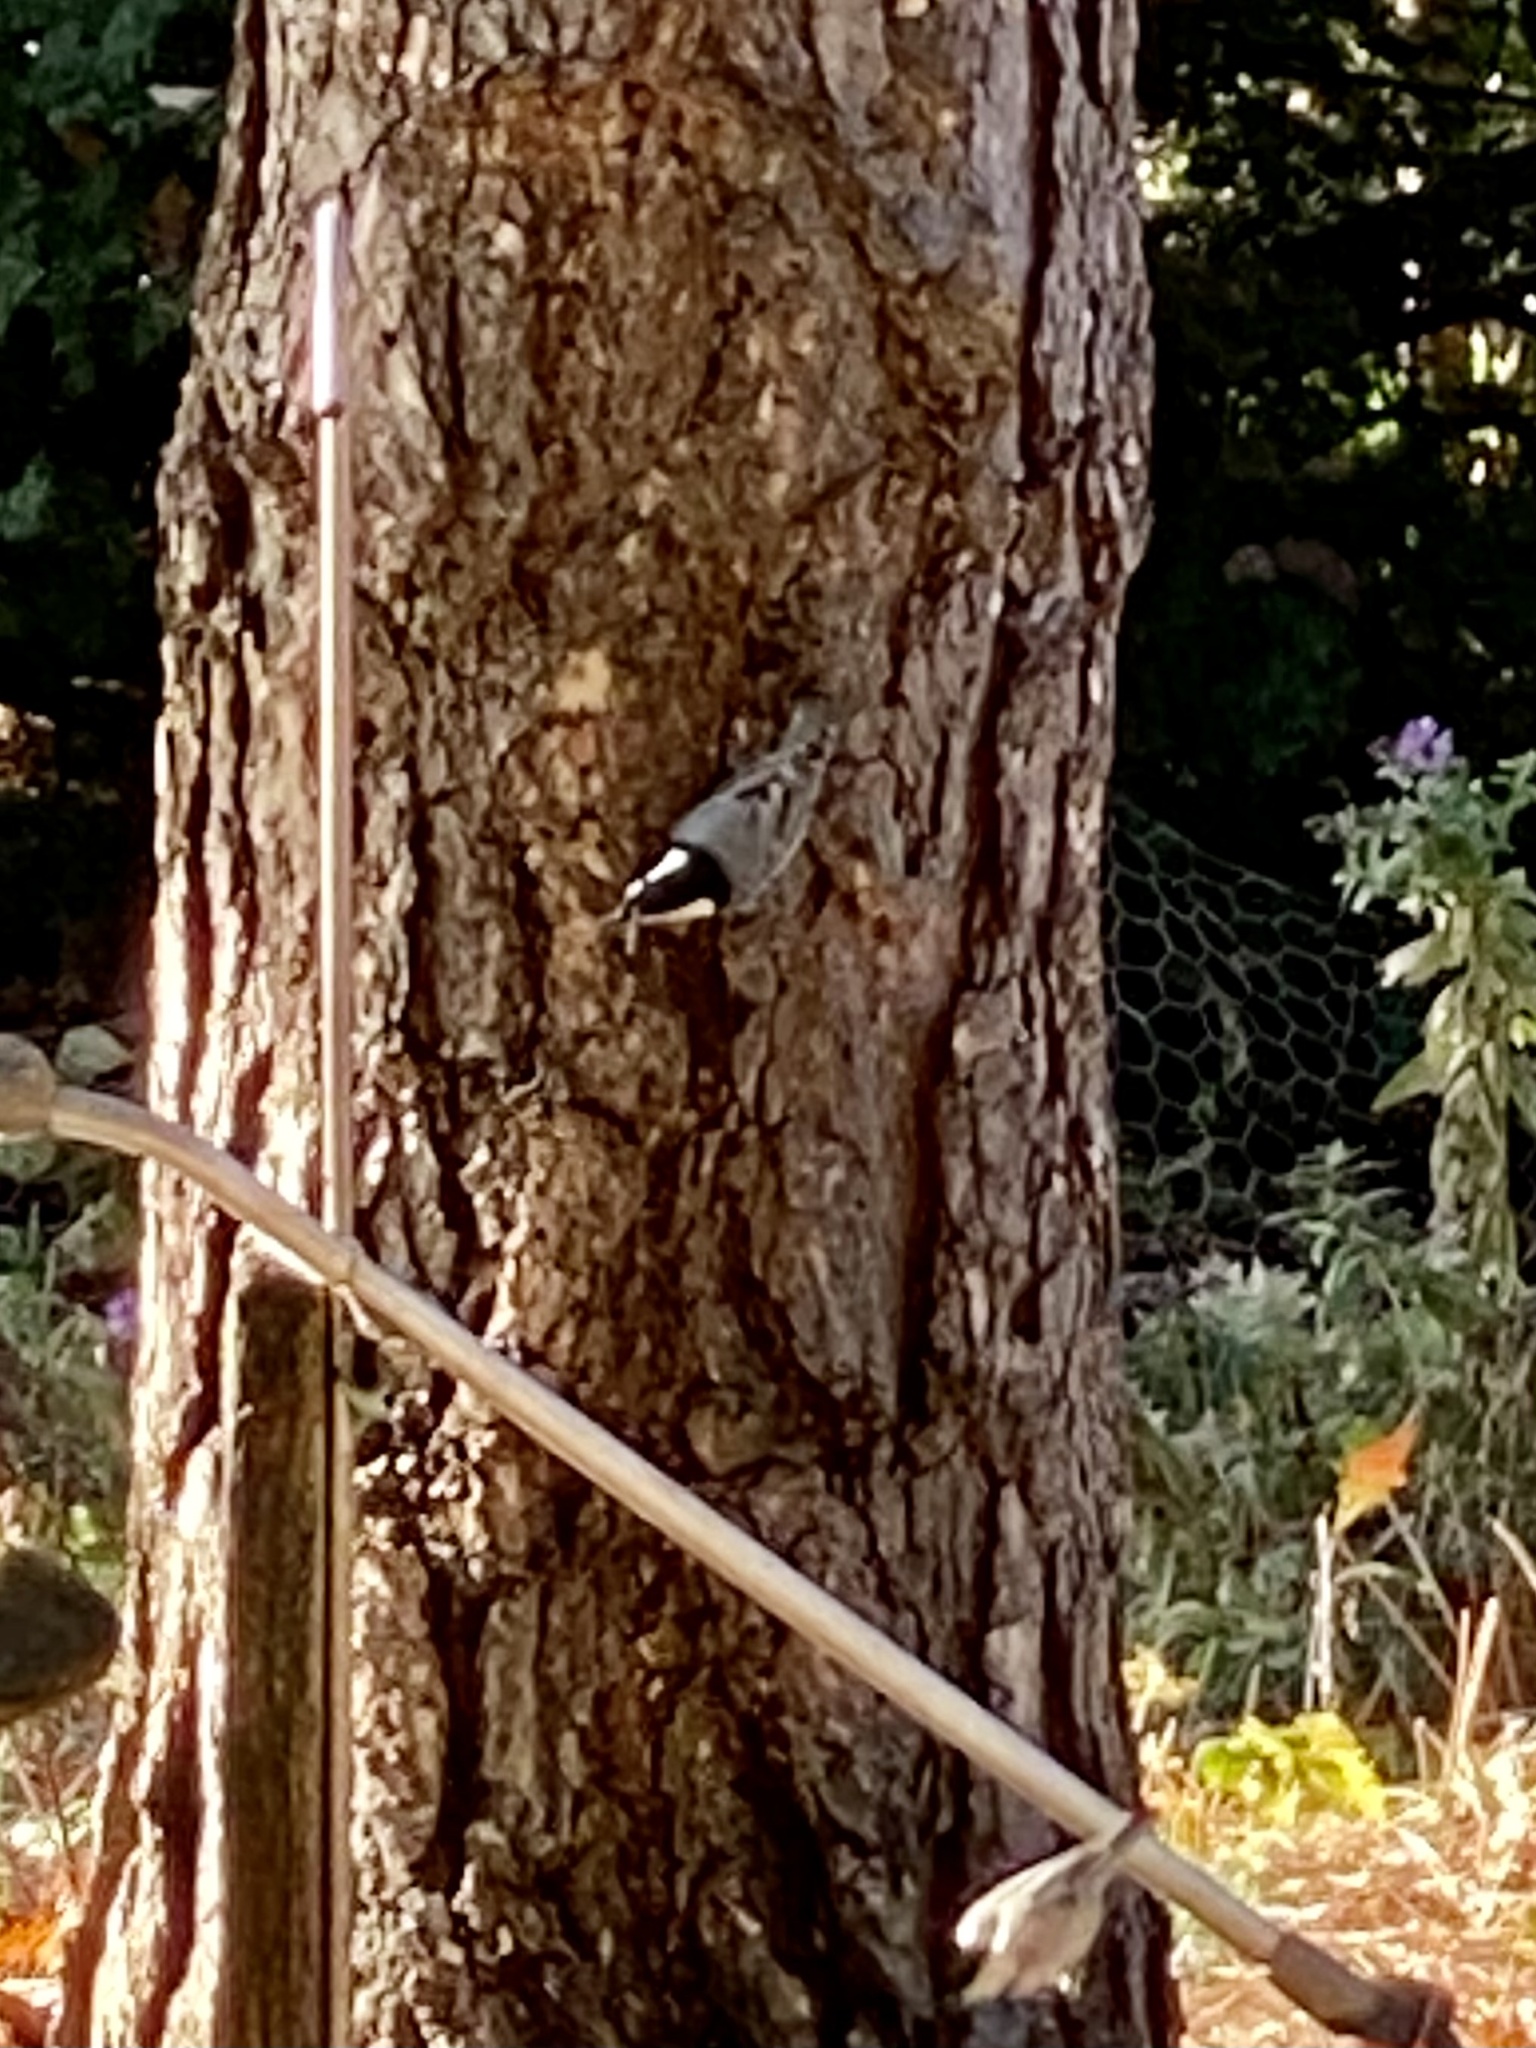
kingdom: Animalia
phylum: Chordata
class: Aves
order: Passeriformes
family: Sittidae
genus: Sitta
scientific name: Sitta carolinensis
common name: White-breasted nuthatch
